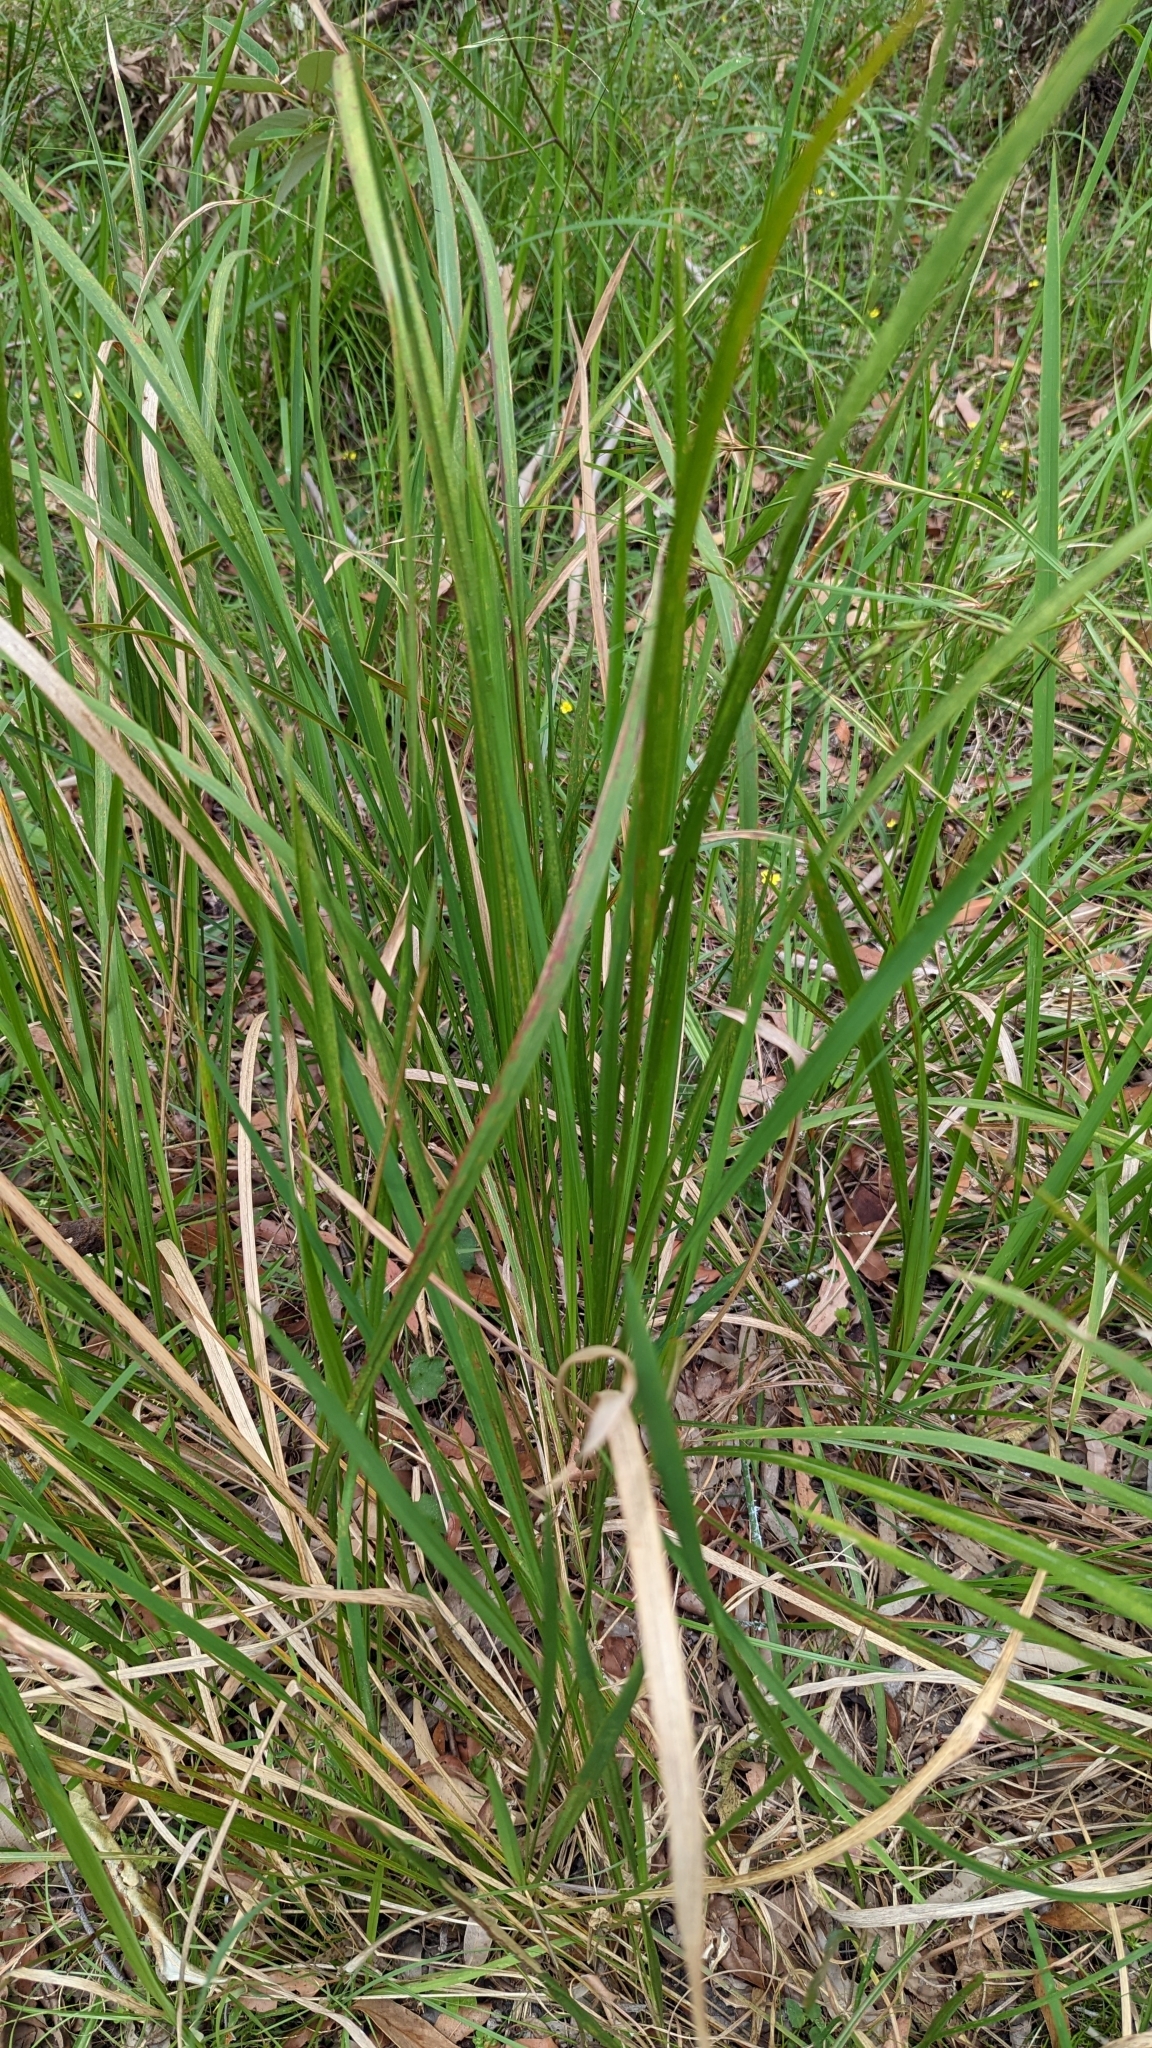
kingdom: Plantae
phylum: Tracheophyta
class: Liliopsida
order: Poales
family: Poaceae
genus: Imperata
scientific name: Imperata cylindrica
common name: Cogongrass
